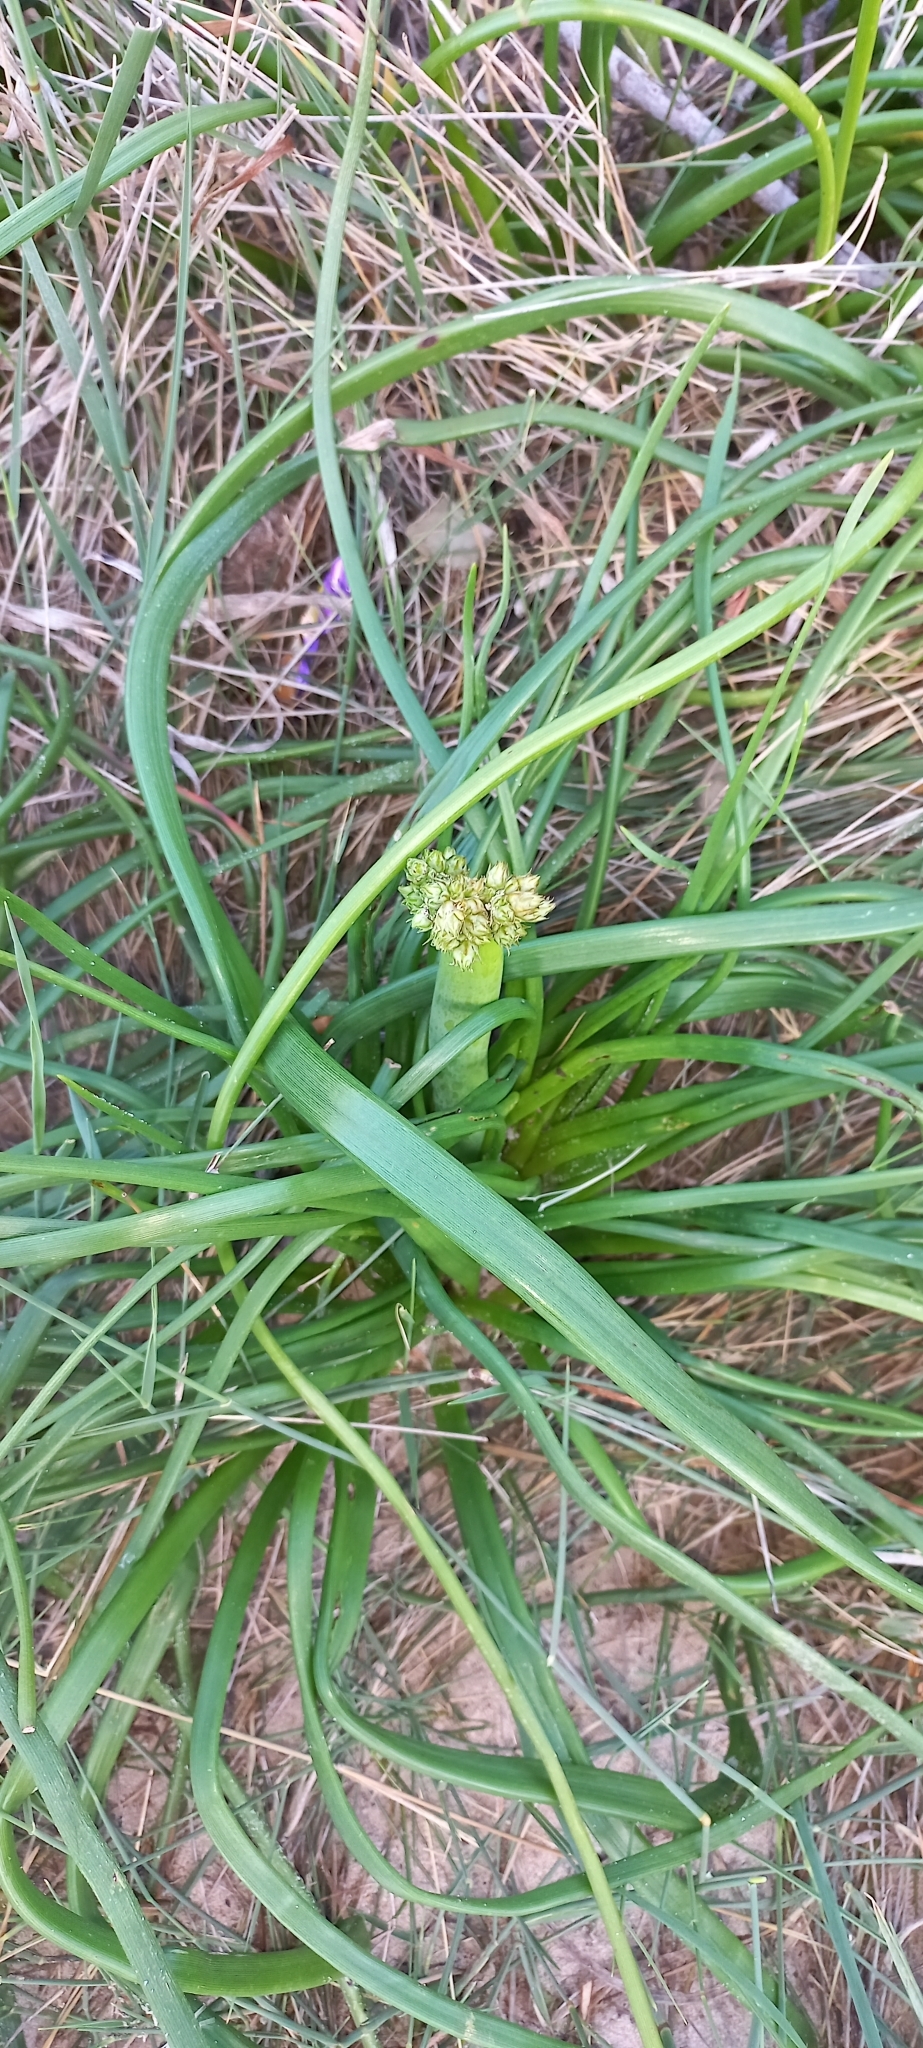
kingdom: Plantae
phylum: Tracheophyta
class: Liliopsida
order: Asparagales
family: Asphodelaceae
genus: Trachyandra
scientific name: Trachyandra divaricata
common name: Dune onionweed
